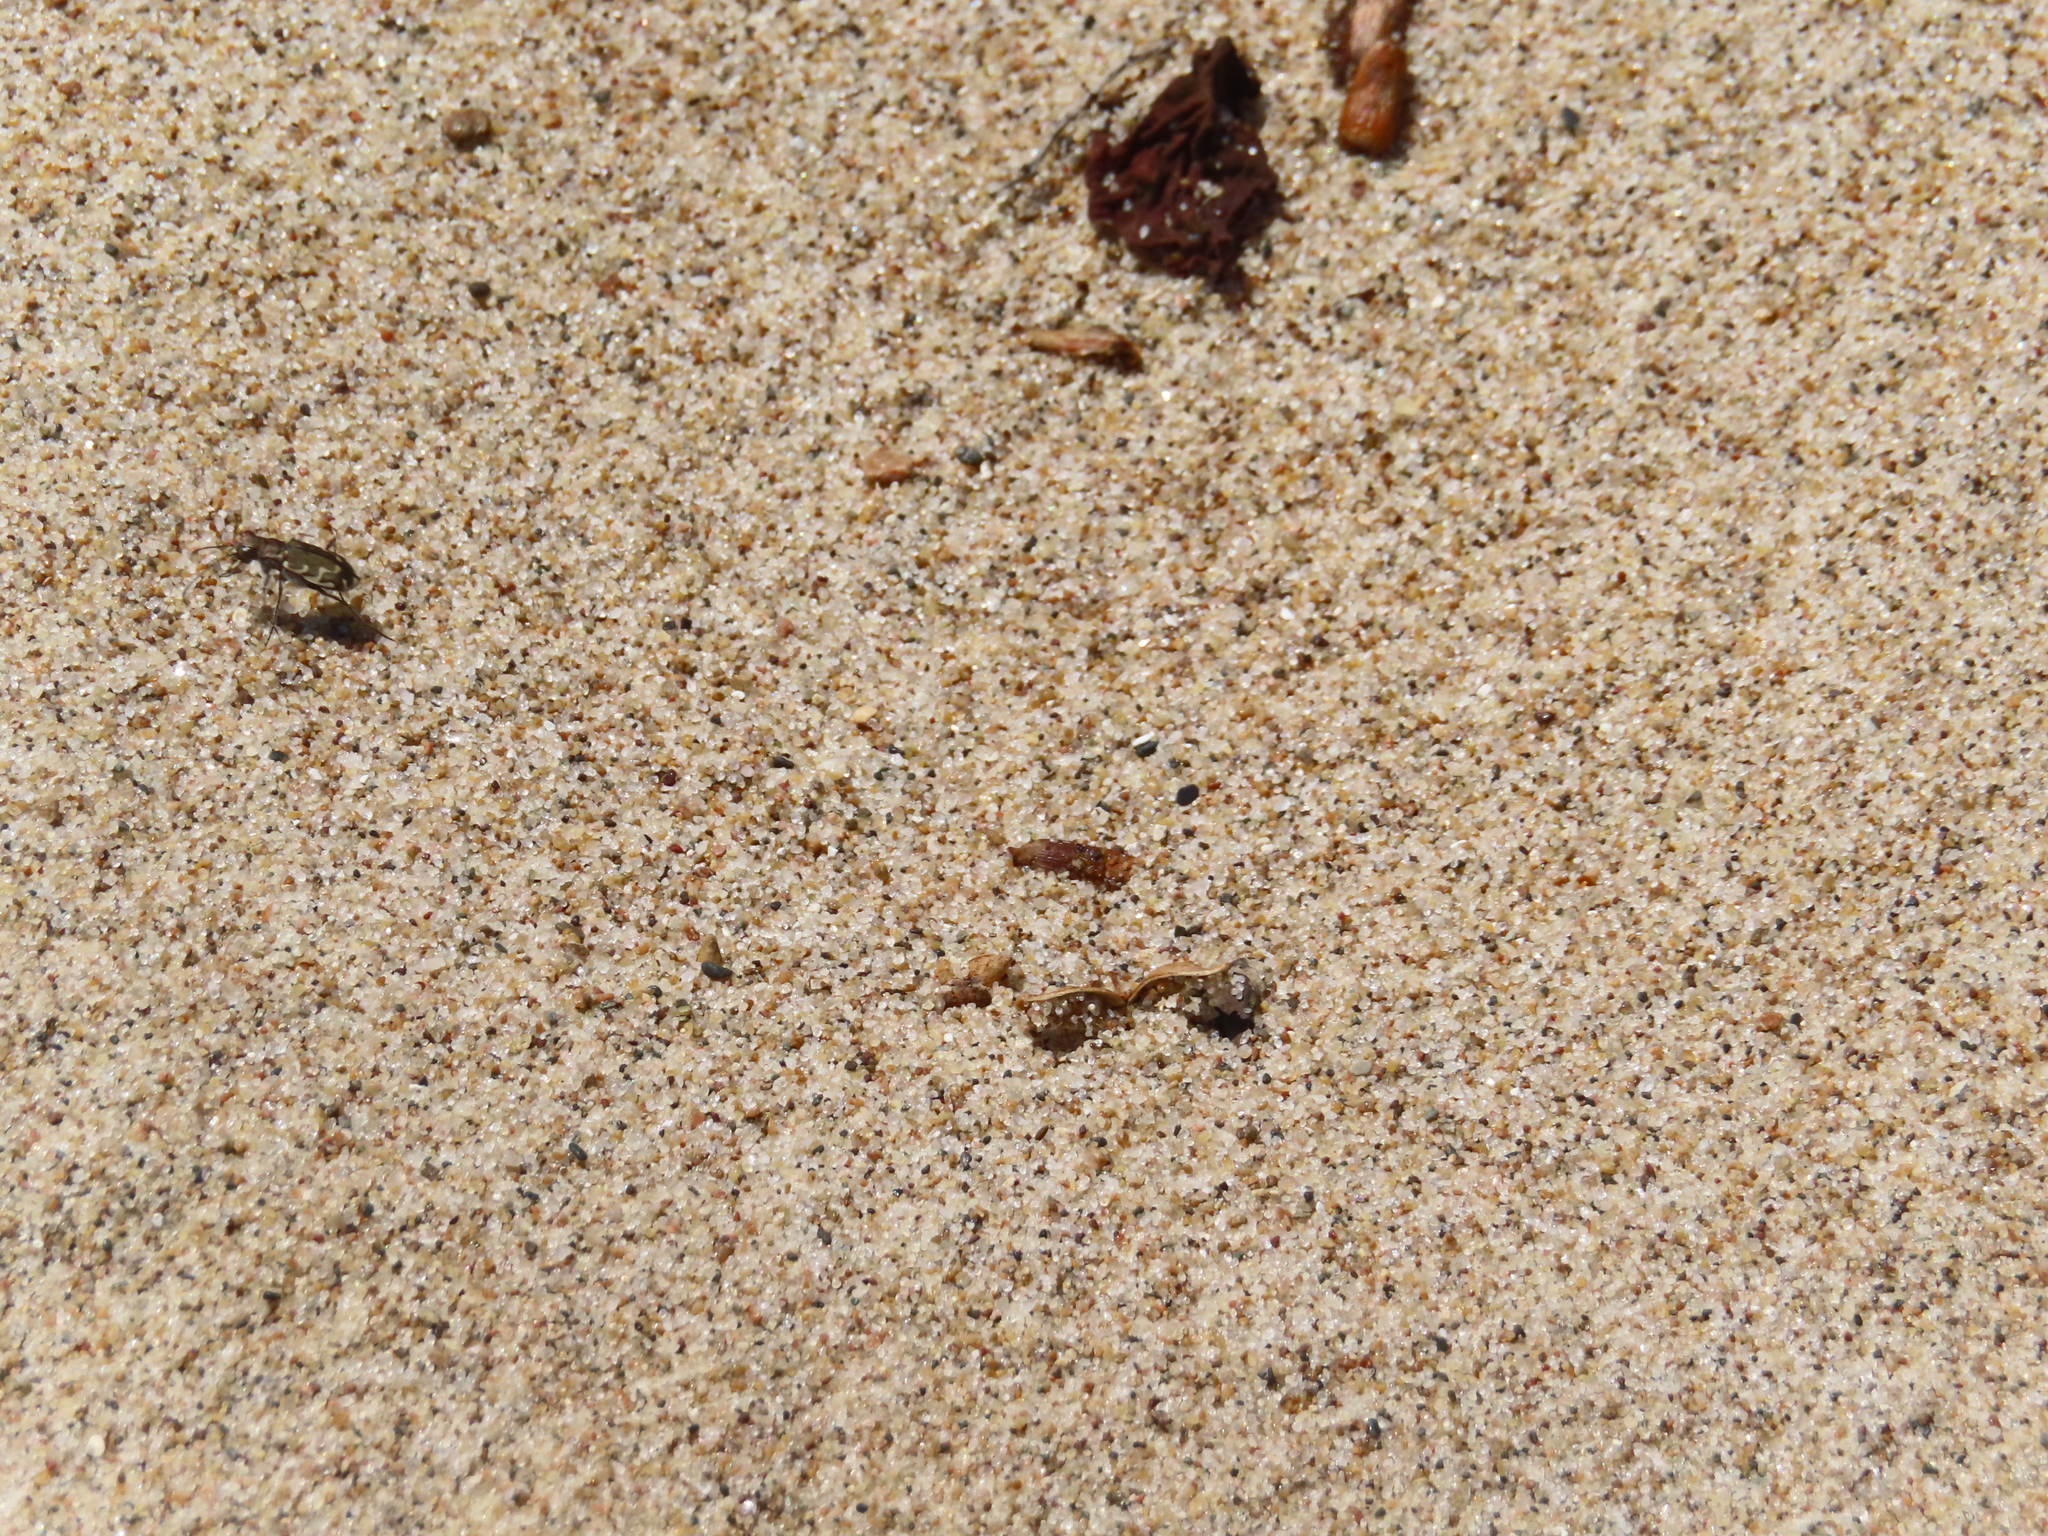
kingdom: Animalia
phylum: Arthropoda
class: Insecta
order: Coleoptera
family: Carabidae
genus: Cicindela
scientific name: Cicindela repanda
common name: Bronzed tiger beetle
